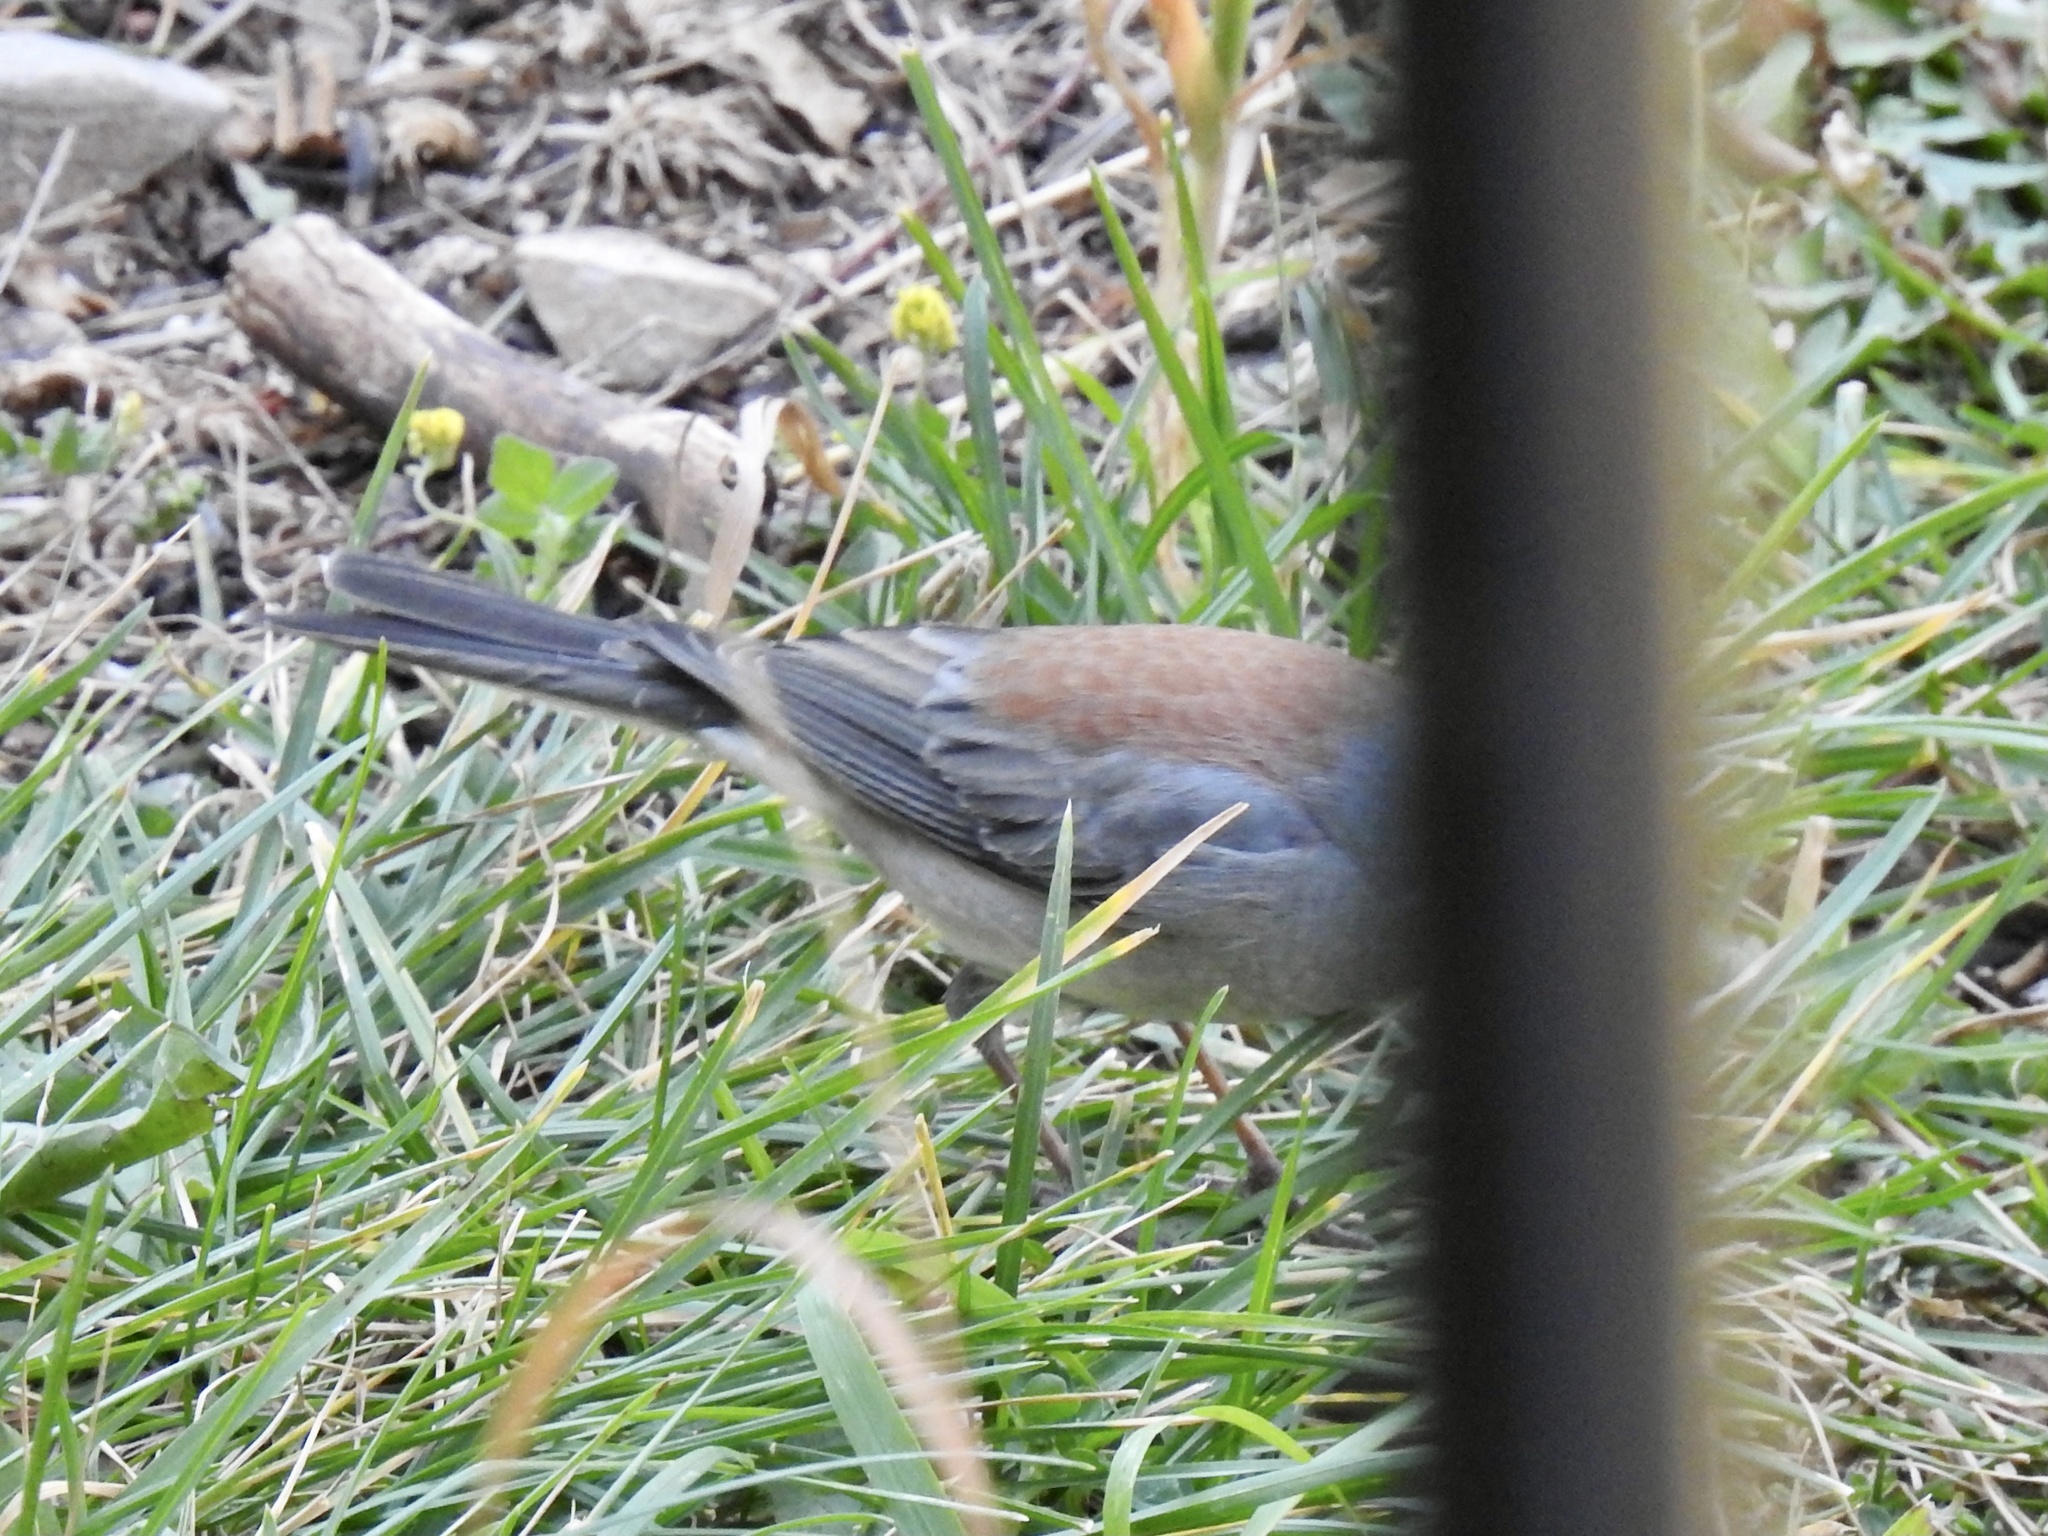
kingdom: Animalia
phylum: Chordata
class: Aves
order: Passeriformes
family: Passerellidae
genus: Junco
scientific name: Junco hyemalis
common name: Dark-eyed junco
